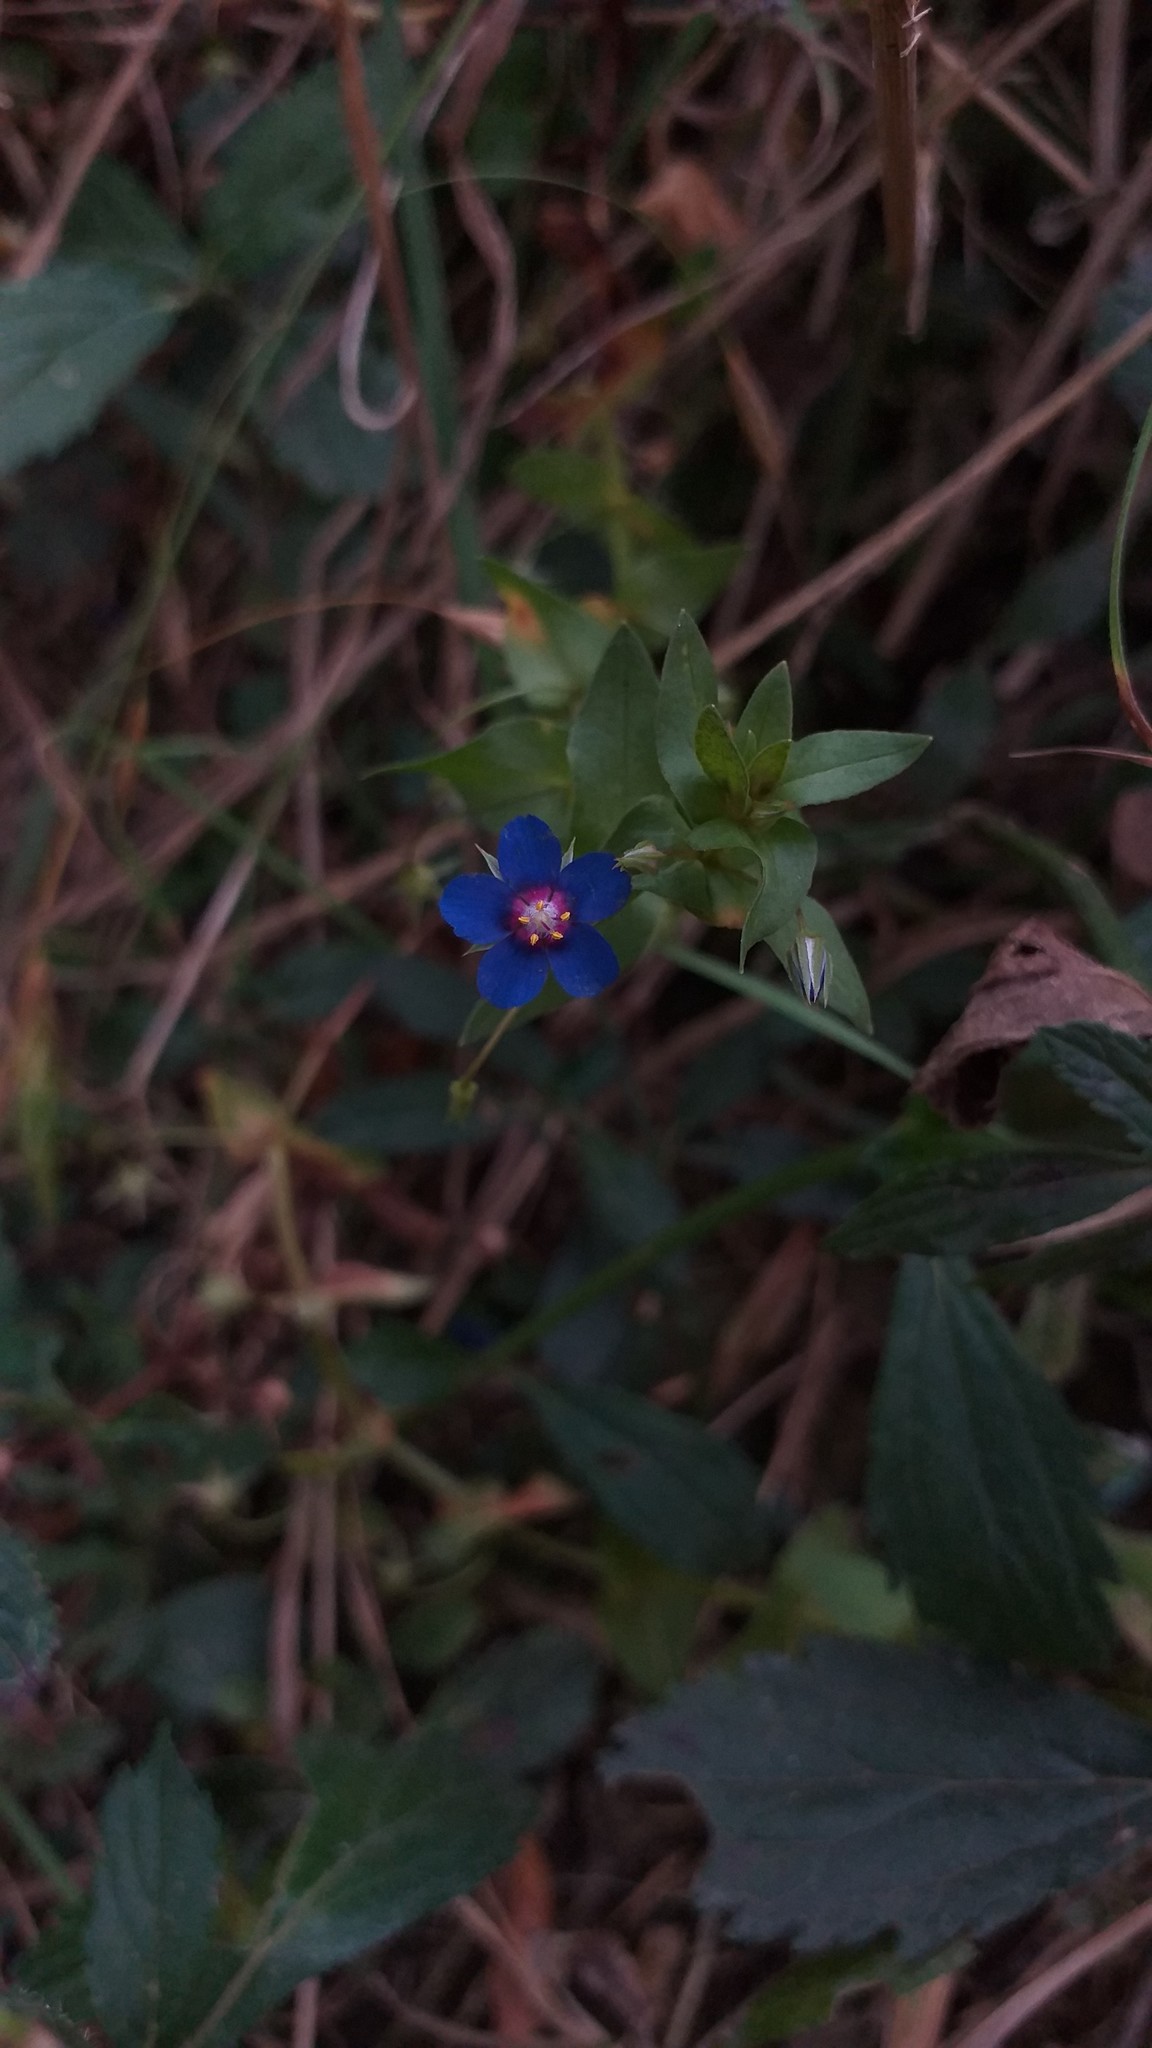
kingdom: Plantae
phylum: Tracheophyta
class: Magnoliopsida
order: Ericales
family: Primulaceae
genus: Lysimachia
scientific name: Lysimachia loeflingii
